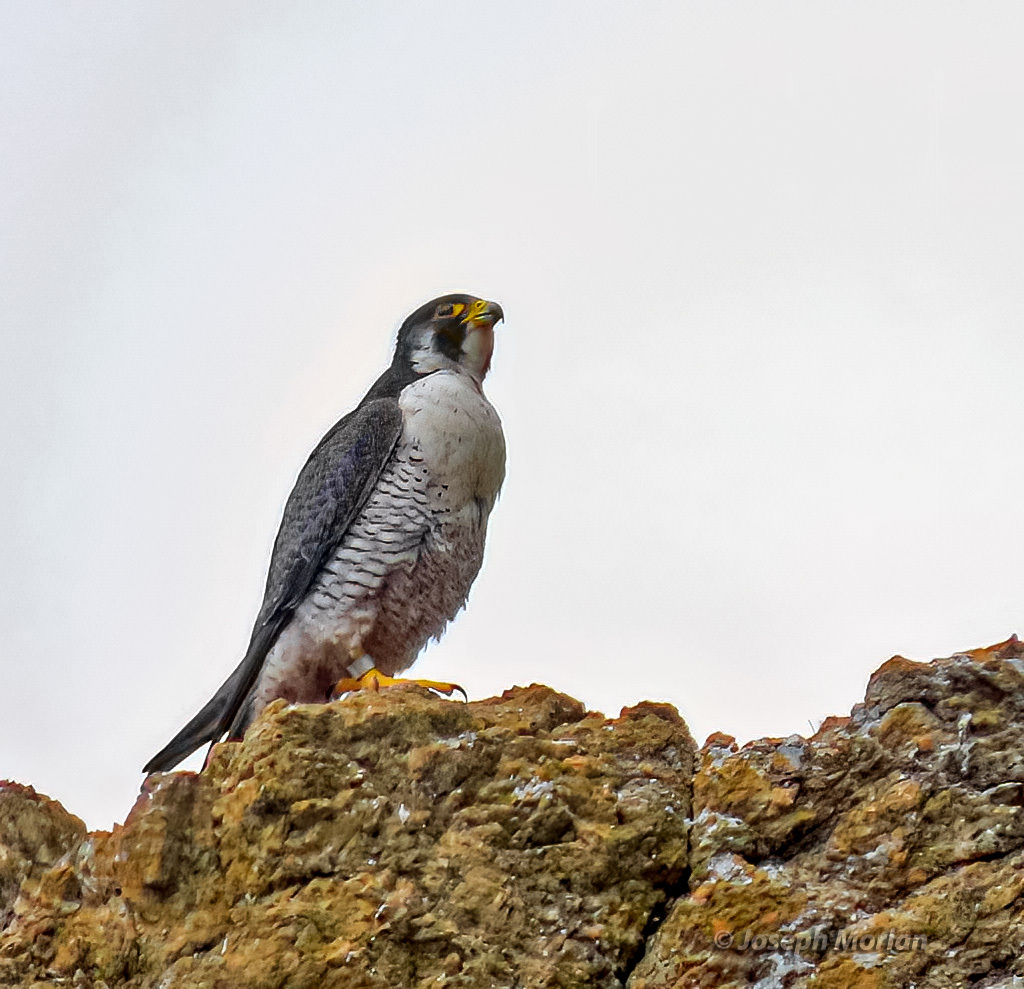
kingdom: Animalia
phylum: Chordata
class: Aves
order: Falconiformes
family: Falconidae
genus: Falco
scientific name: Falco peregrinus
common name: Peregrine falcon
